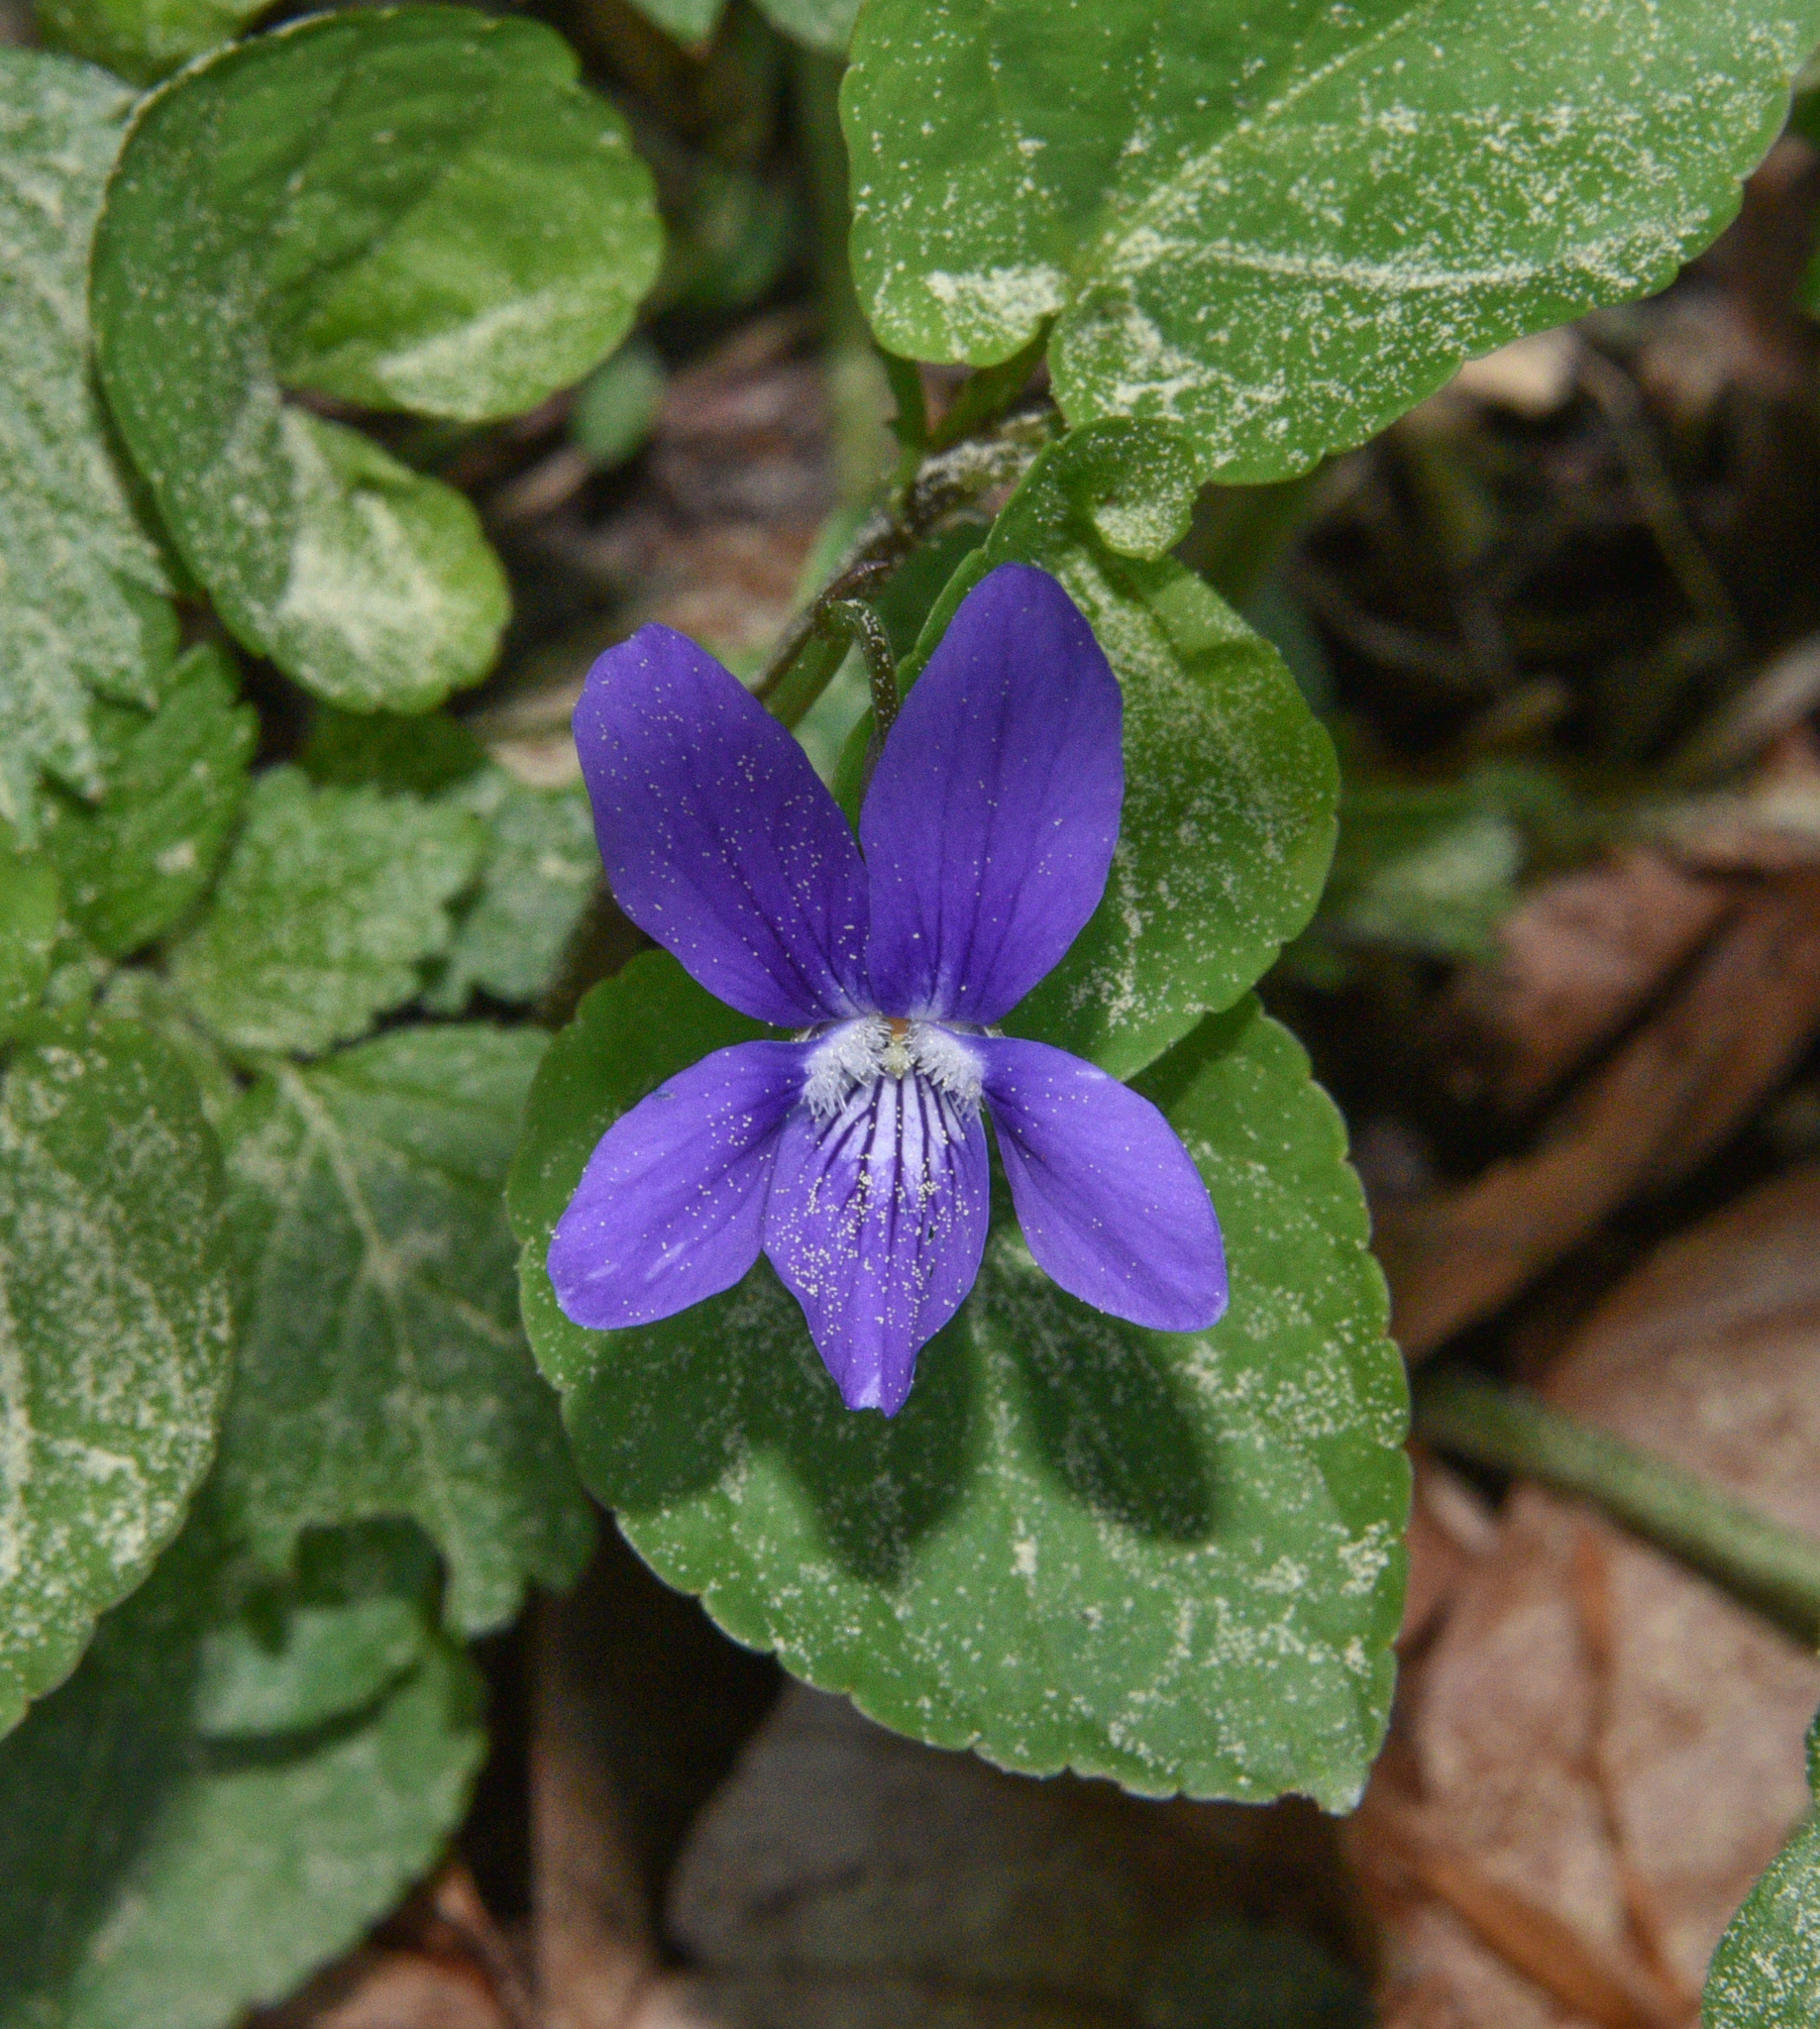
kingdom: Plantae
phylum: Tracheophyta
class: Magnoliopsida
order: Malpighiales
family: Violaceae
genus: Viola
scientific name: Viola reichenbachiana
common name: Early dog-violet
